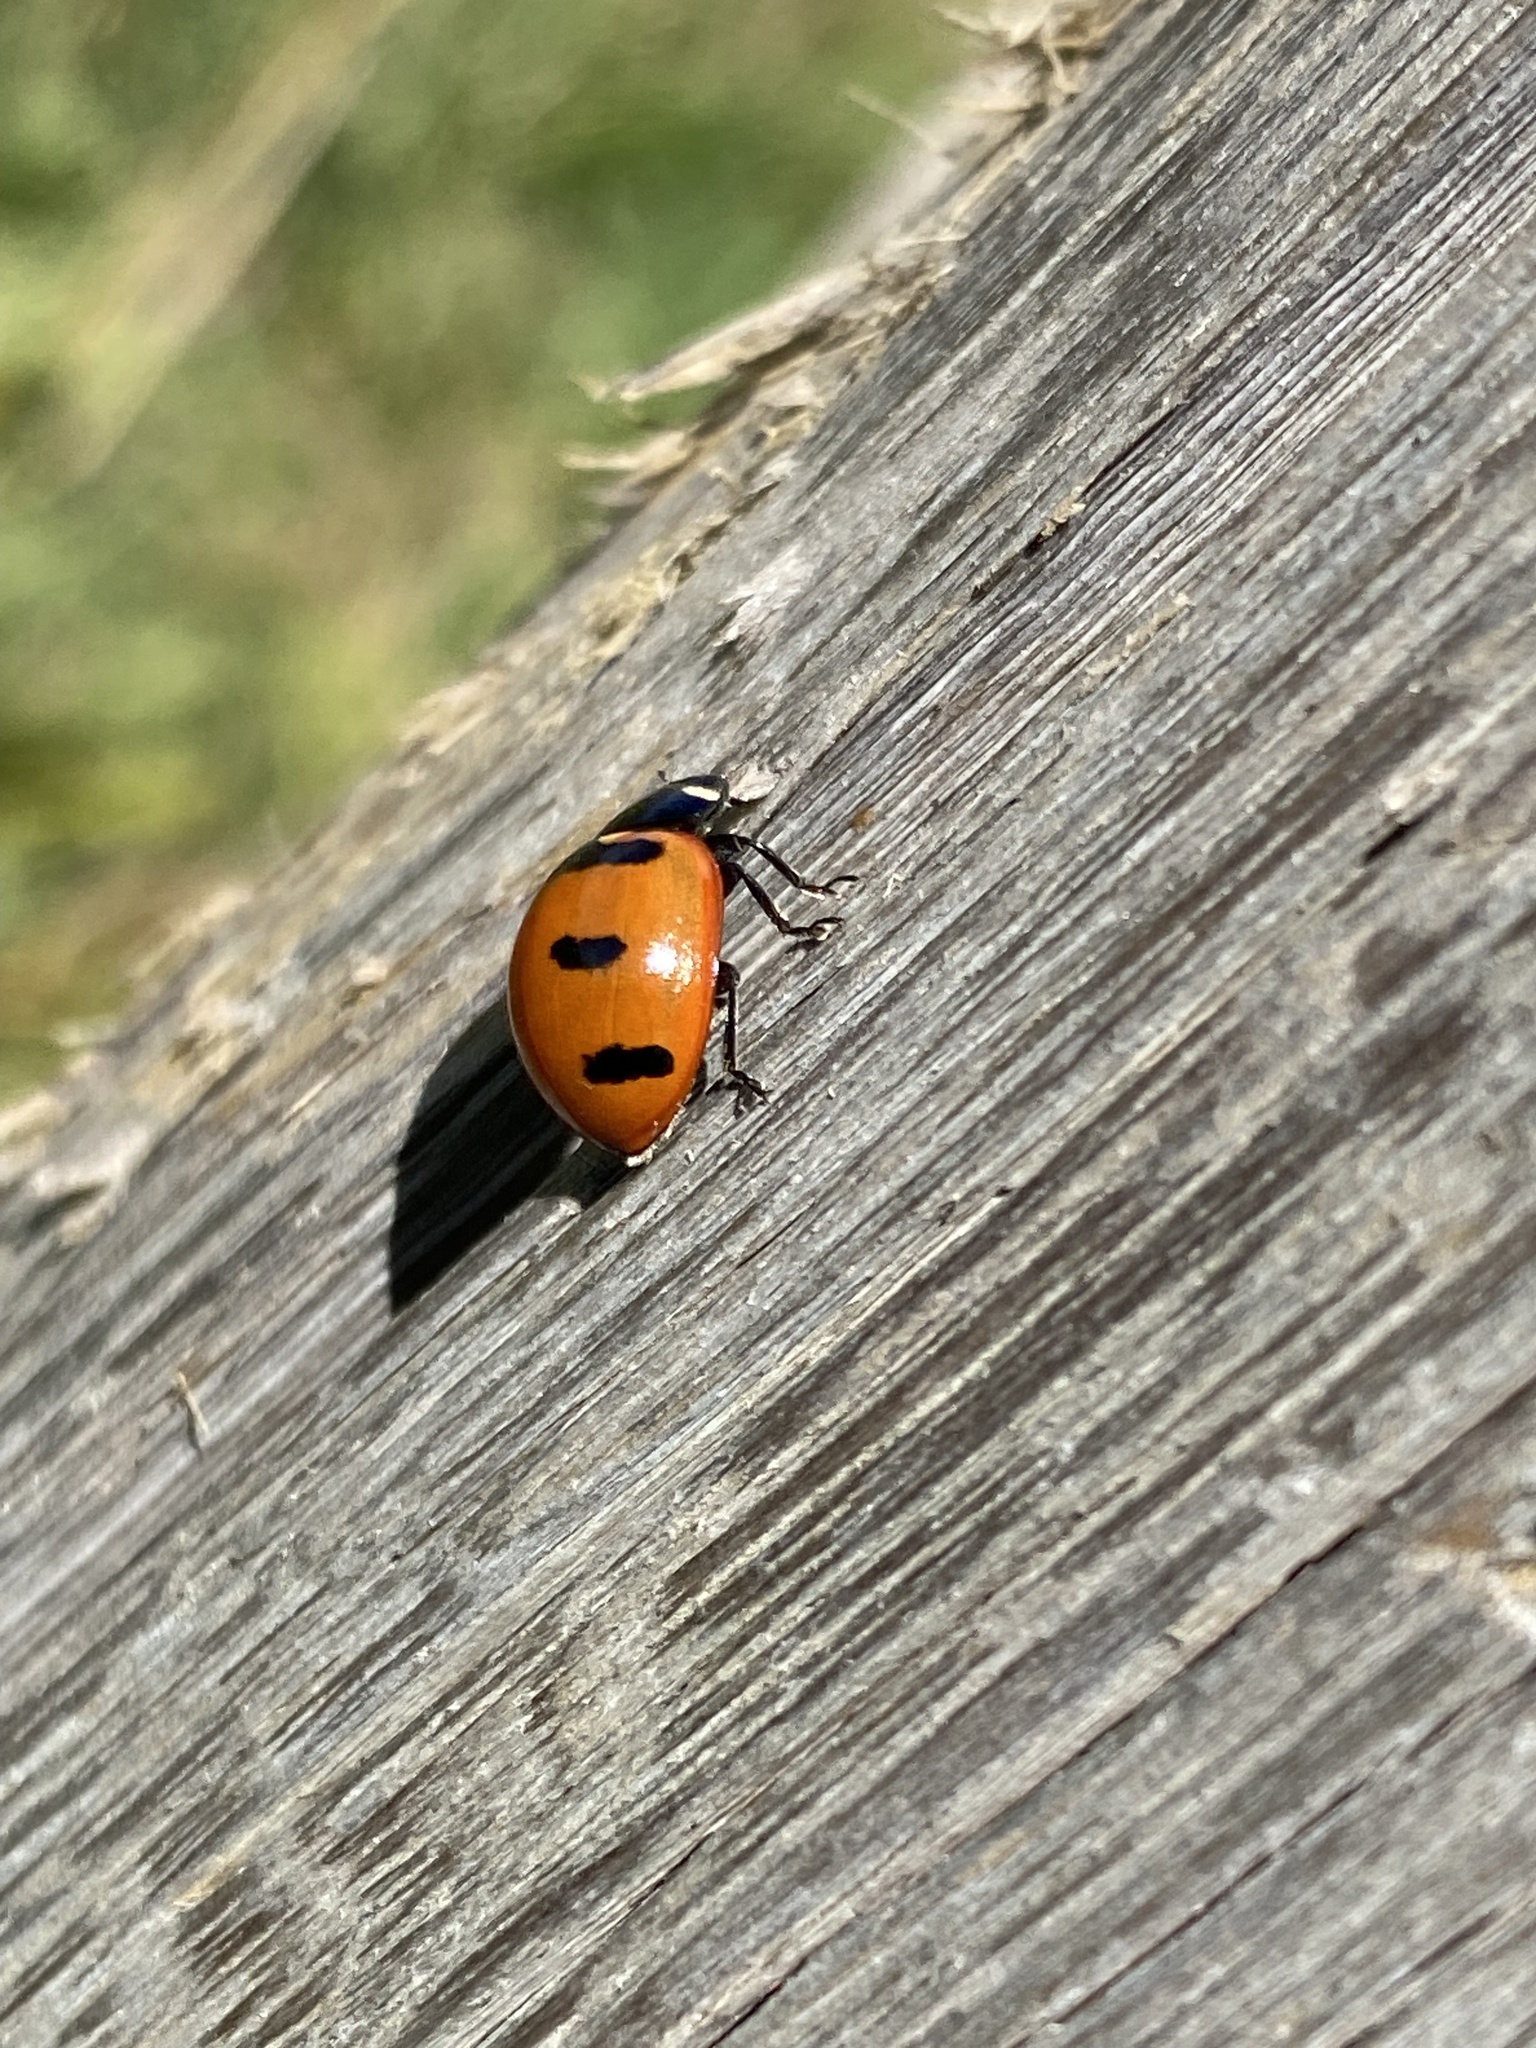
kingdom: Animalia
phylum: Arthropoda
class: Insecta
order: Coleoptera
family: Coccinellidae
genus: Coccinella
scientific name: Coccinella transversoguttata
